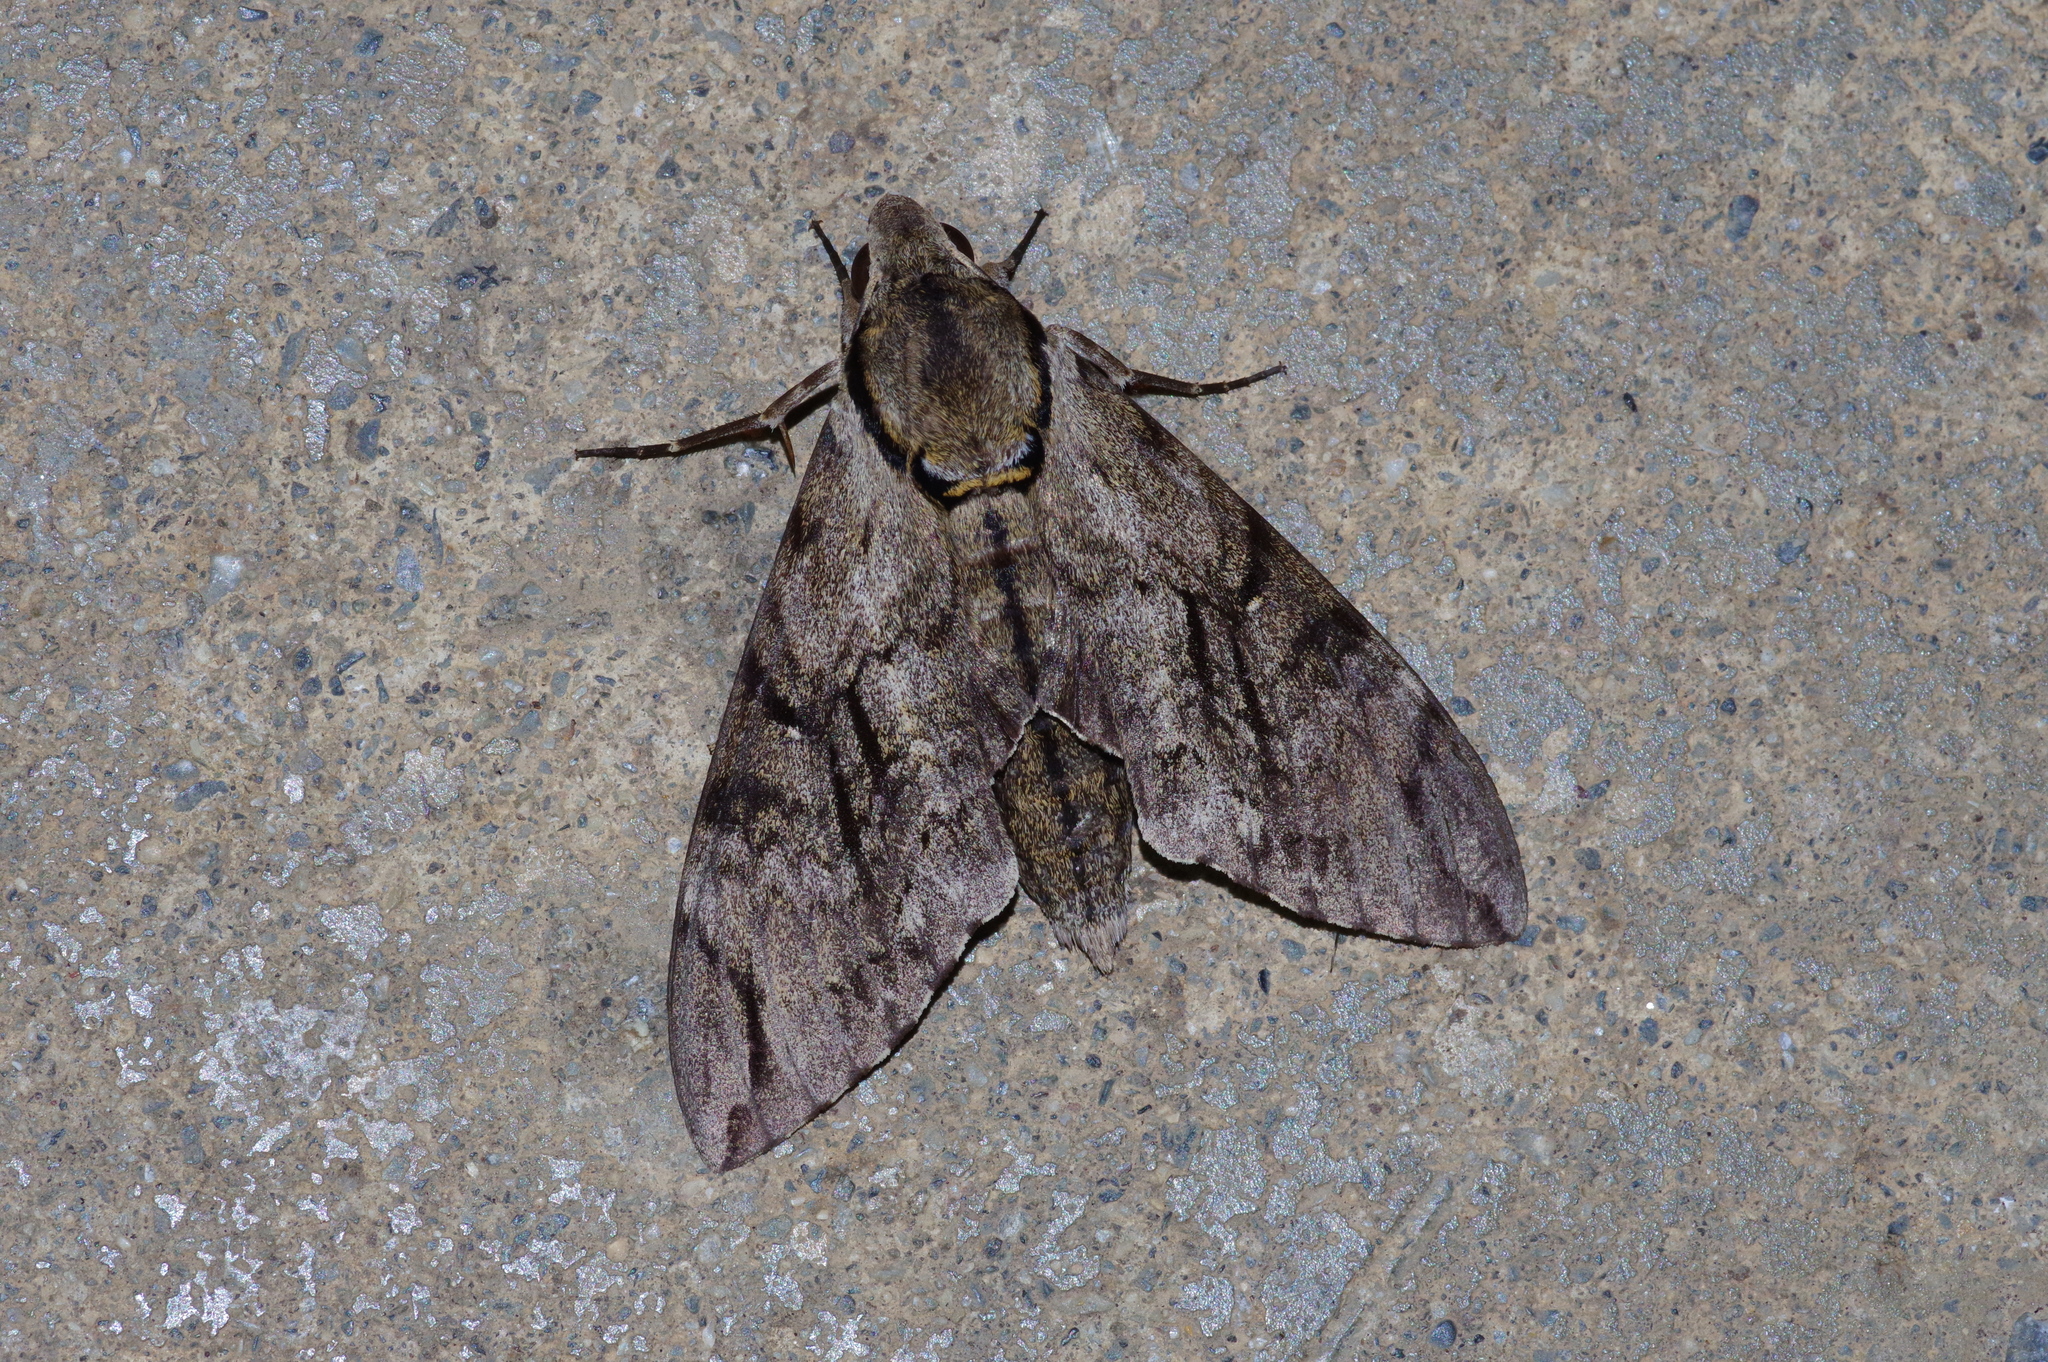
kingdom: Animalia
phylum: Arthropoda
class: Insecta
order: Lepidoptera
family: Sphingidae
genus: Psilogramma
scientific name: Psilogramma increta
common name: Gray hawk moth
